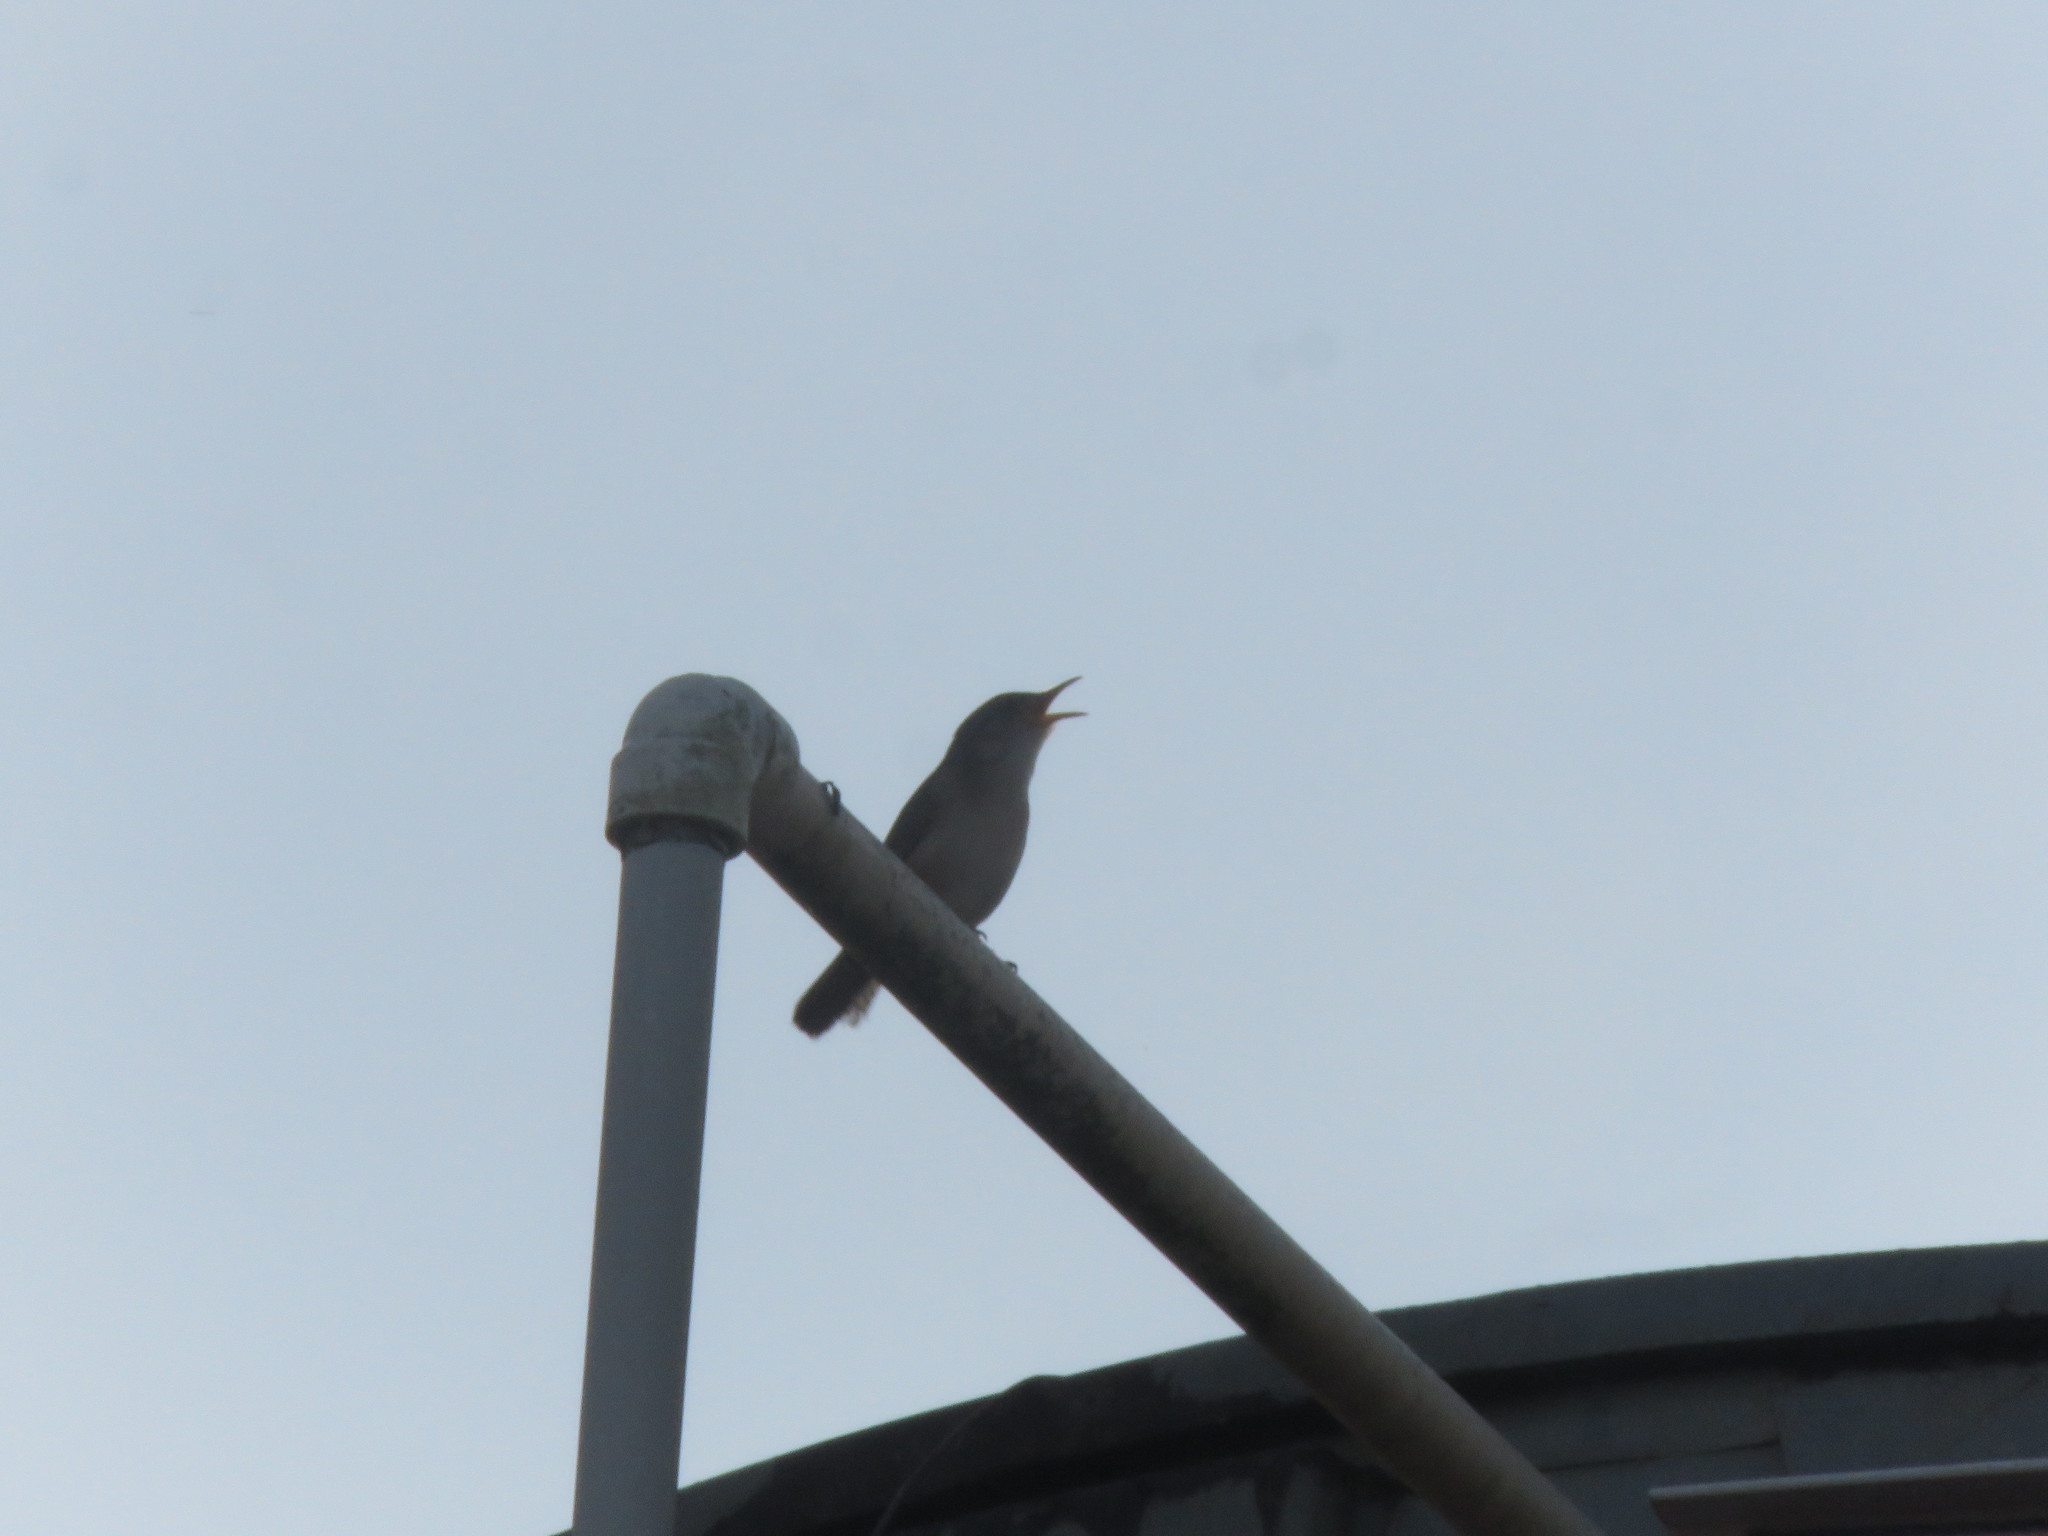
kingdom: Animalia
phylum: Chordata
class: Aves
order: Passeriformes
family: Troglodytidae
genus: Troglodytes
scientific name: Troglodytes aedon
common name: House wren
